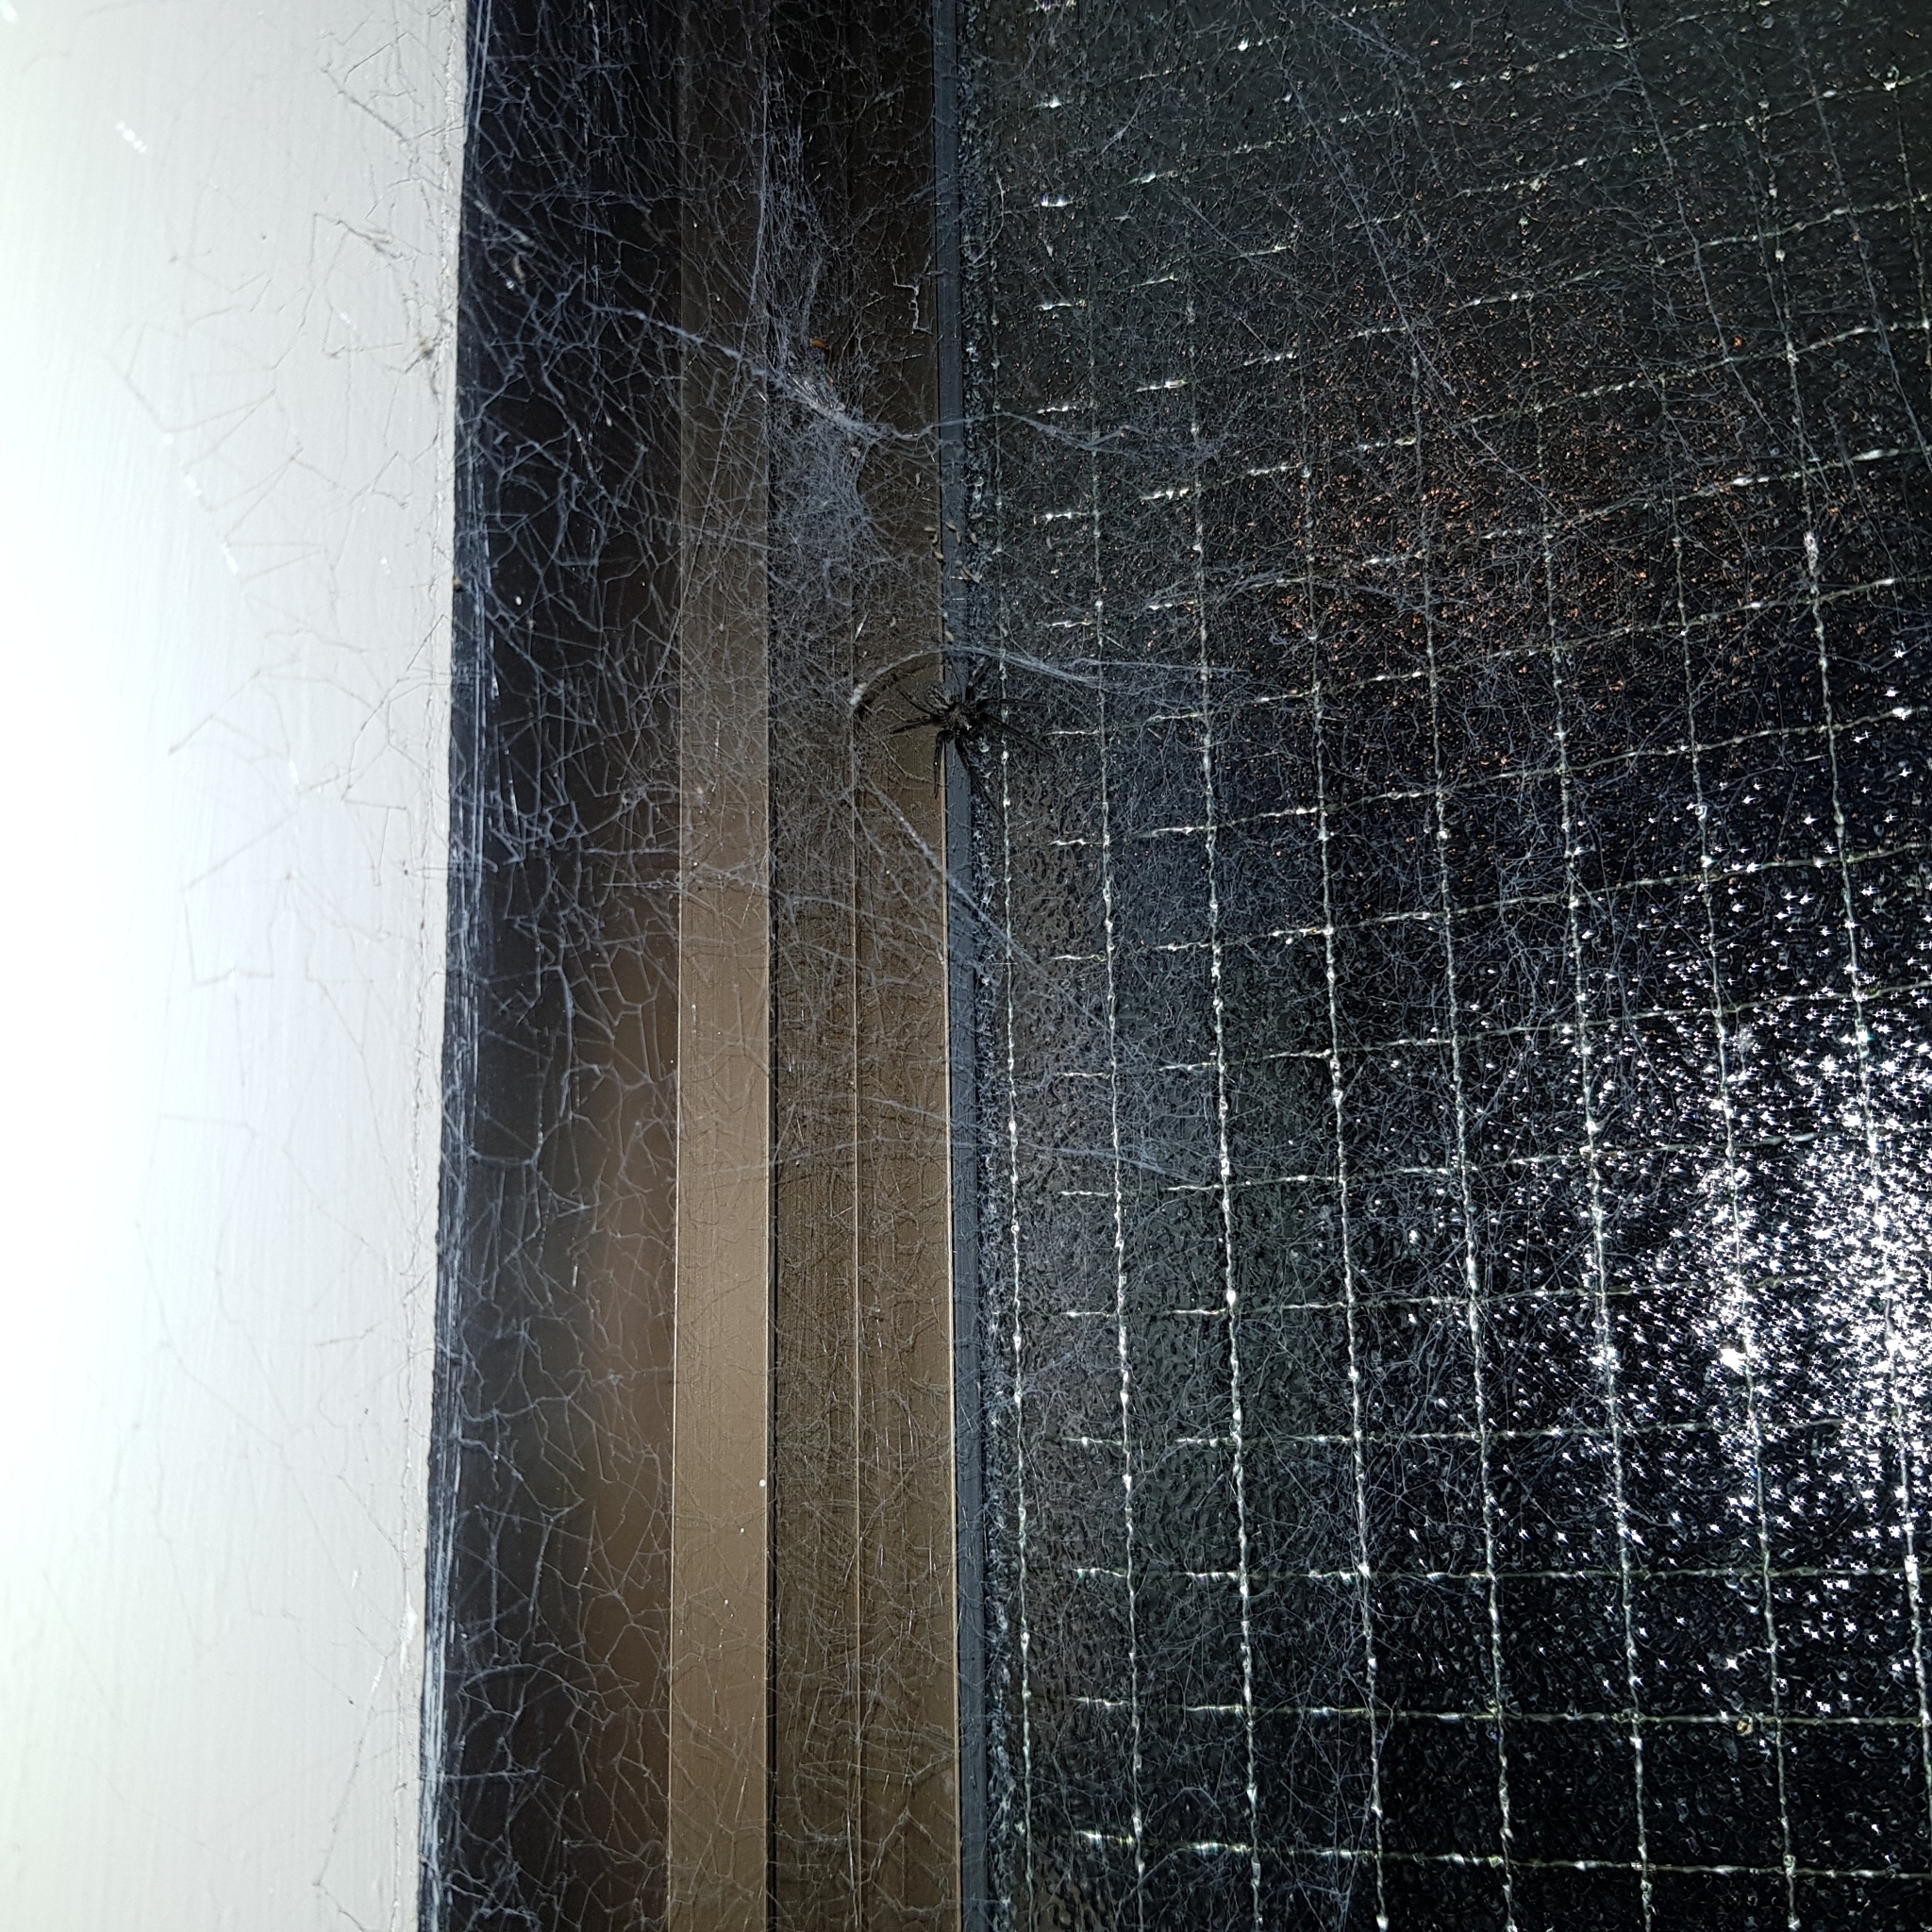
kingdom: Animalia
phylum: Arthropoda
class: Arachnida
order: Araneae
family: Desidae
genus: Badumna
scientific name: Badumna insignis
